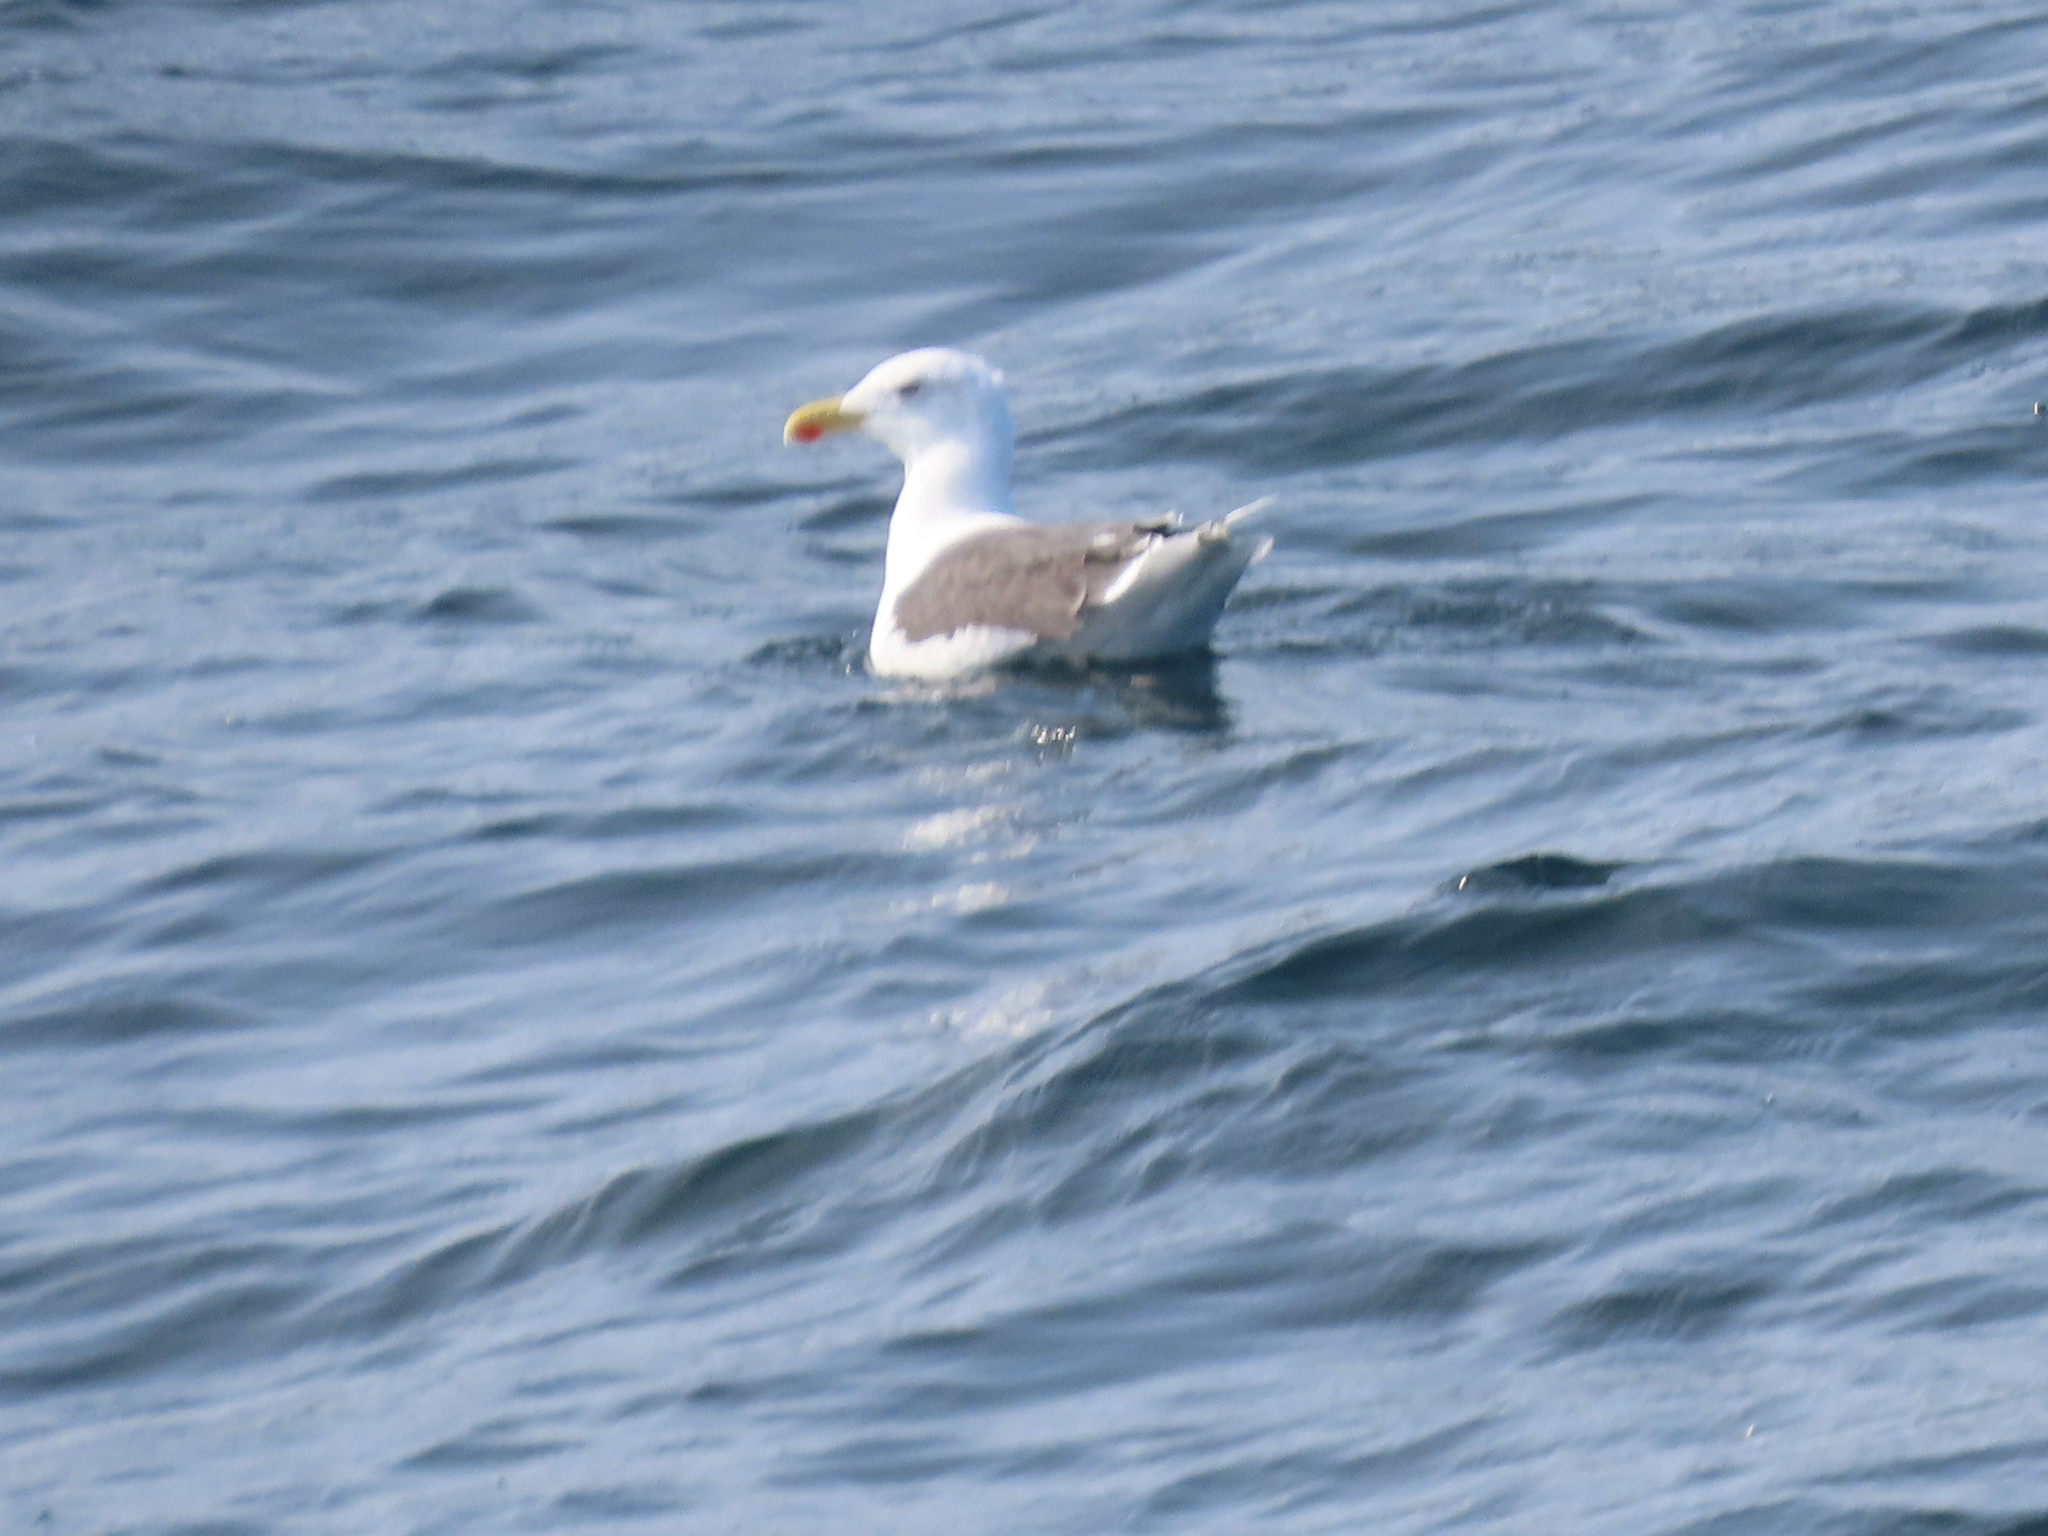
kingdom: Animalia
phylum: Chordata
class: Aves
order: Charadriiformes
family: Laridae
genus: Larus
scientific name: Larus marinus
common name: Great black-backed gull
